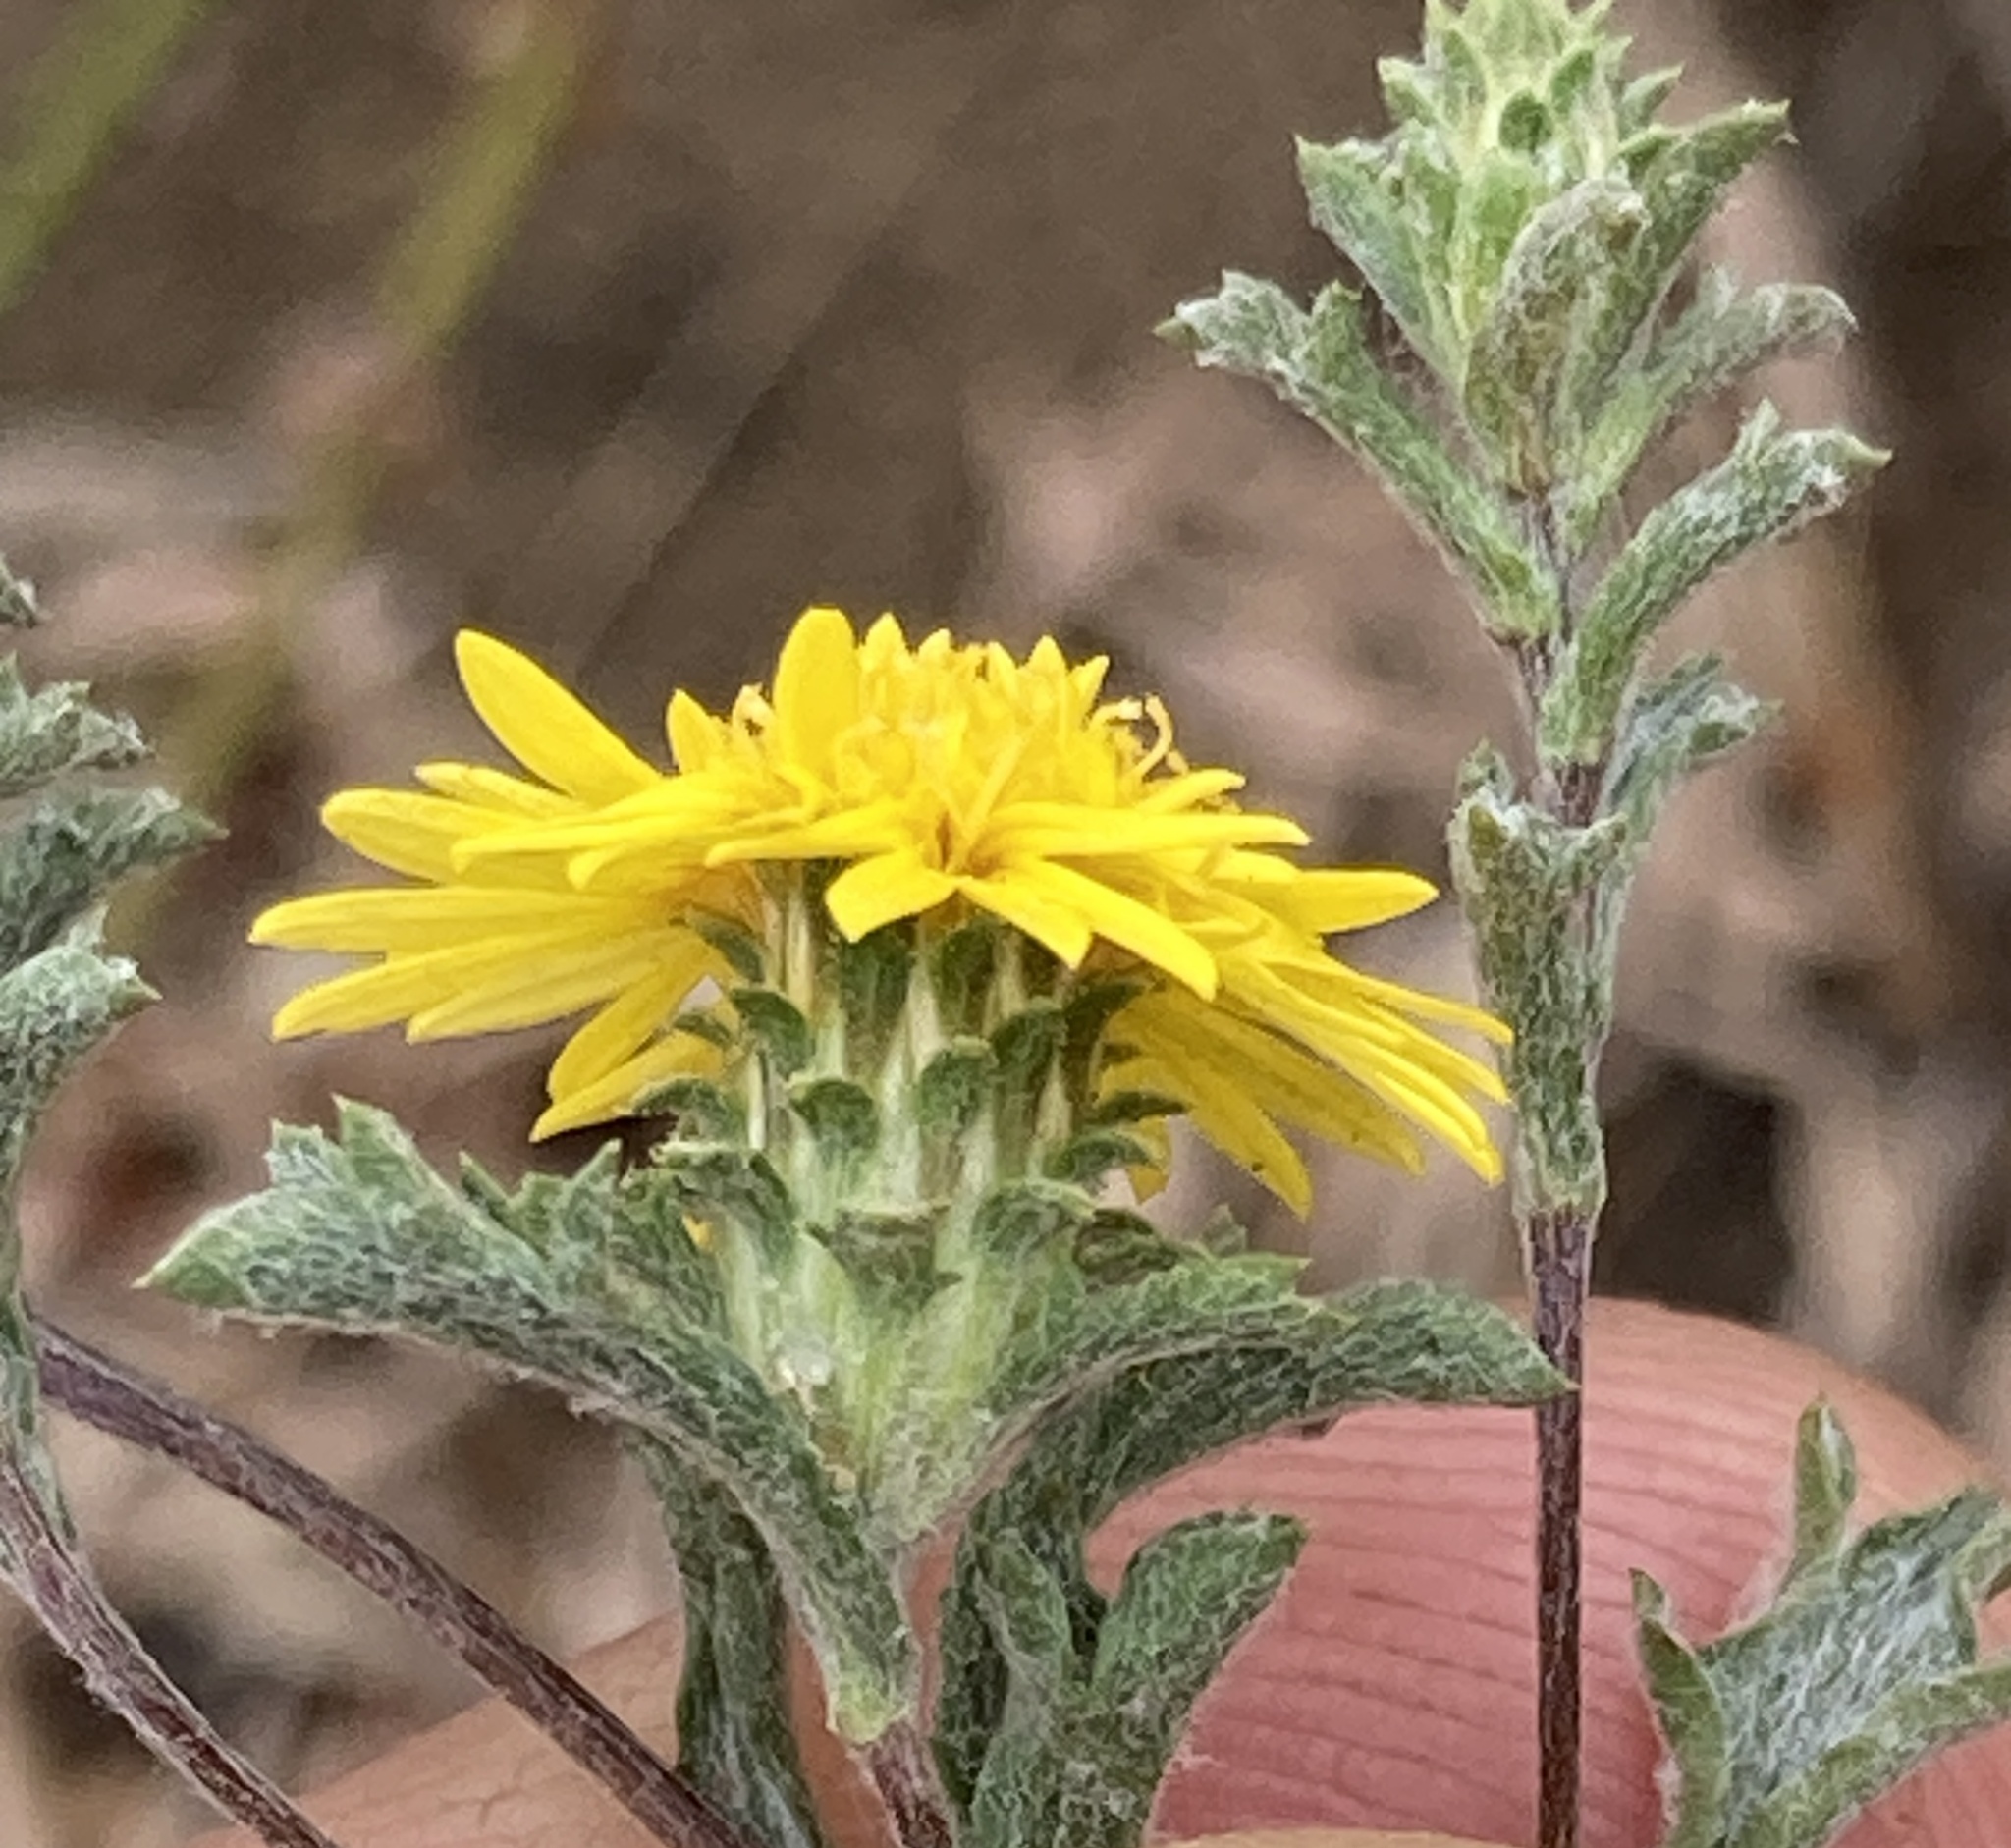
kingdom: Plantae
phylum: Tracheophyta
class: Magnoliopsida
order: Asterales
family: Asteraceae
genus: Lessingia
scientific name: Lessingia germanorum
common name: San francisco lessingia
